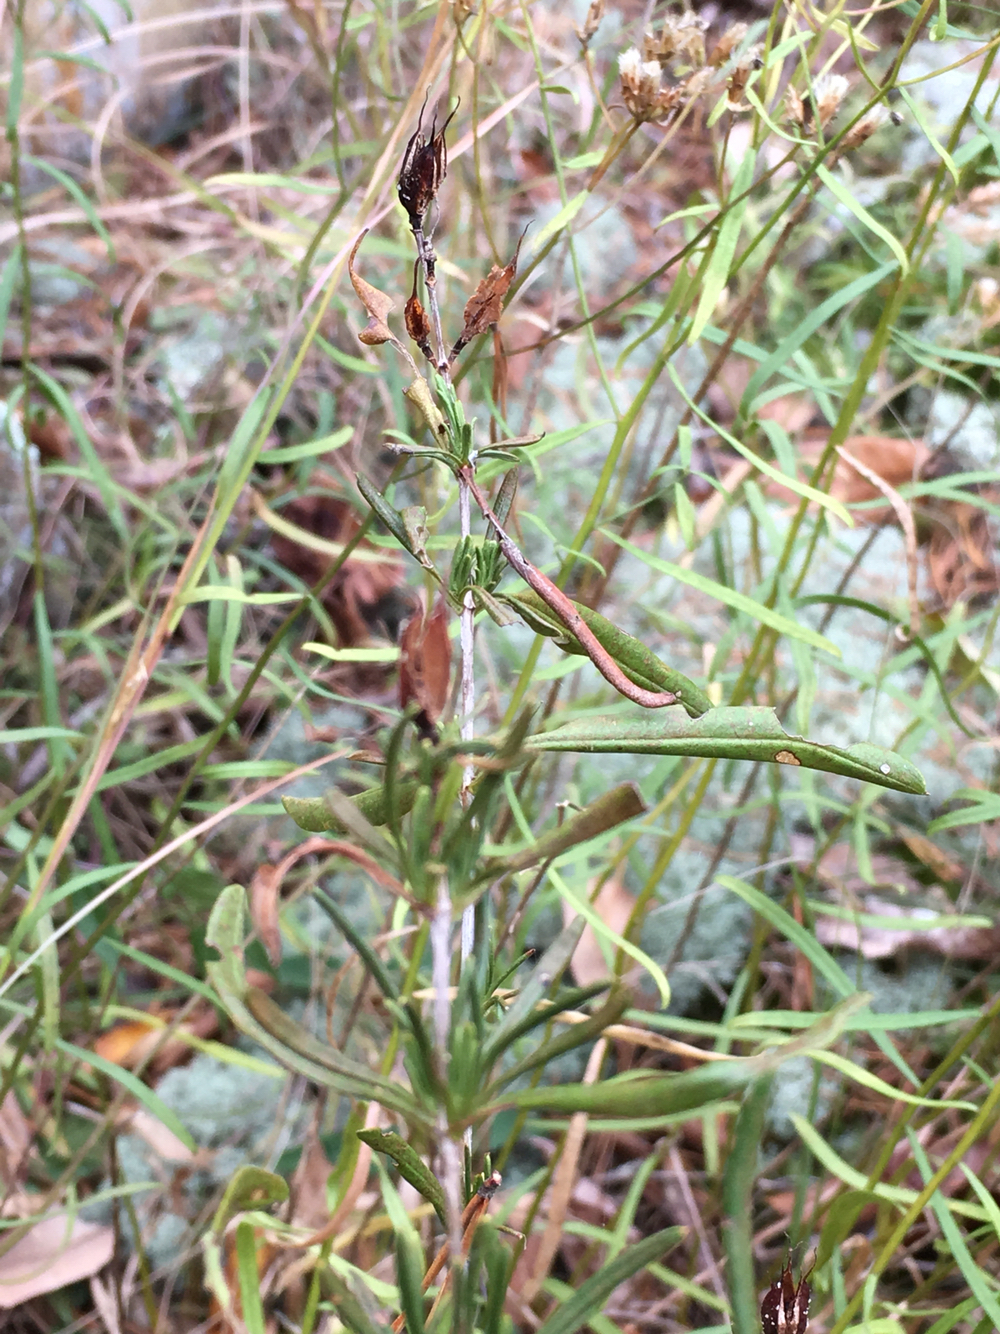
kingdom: Plantae
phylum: Tracheophyta
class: Magnoliopsida
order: Malpighiales
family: Hypericaceae
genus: Hypericum
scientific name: Hypericum densiflorum
